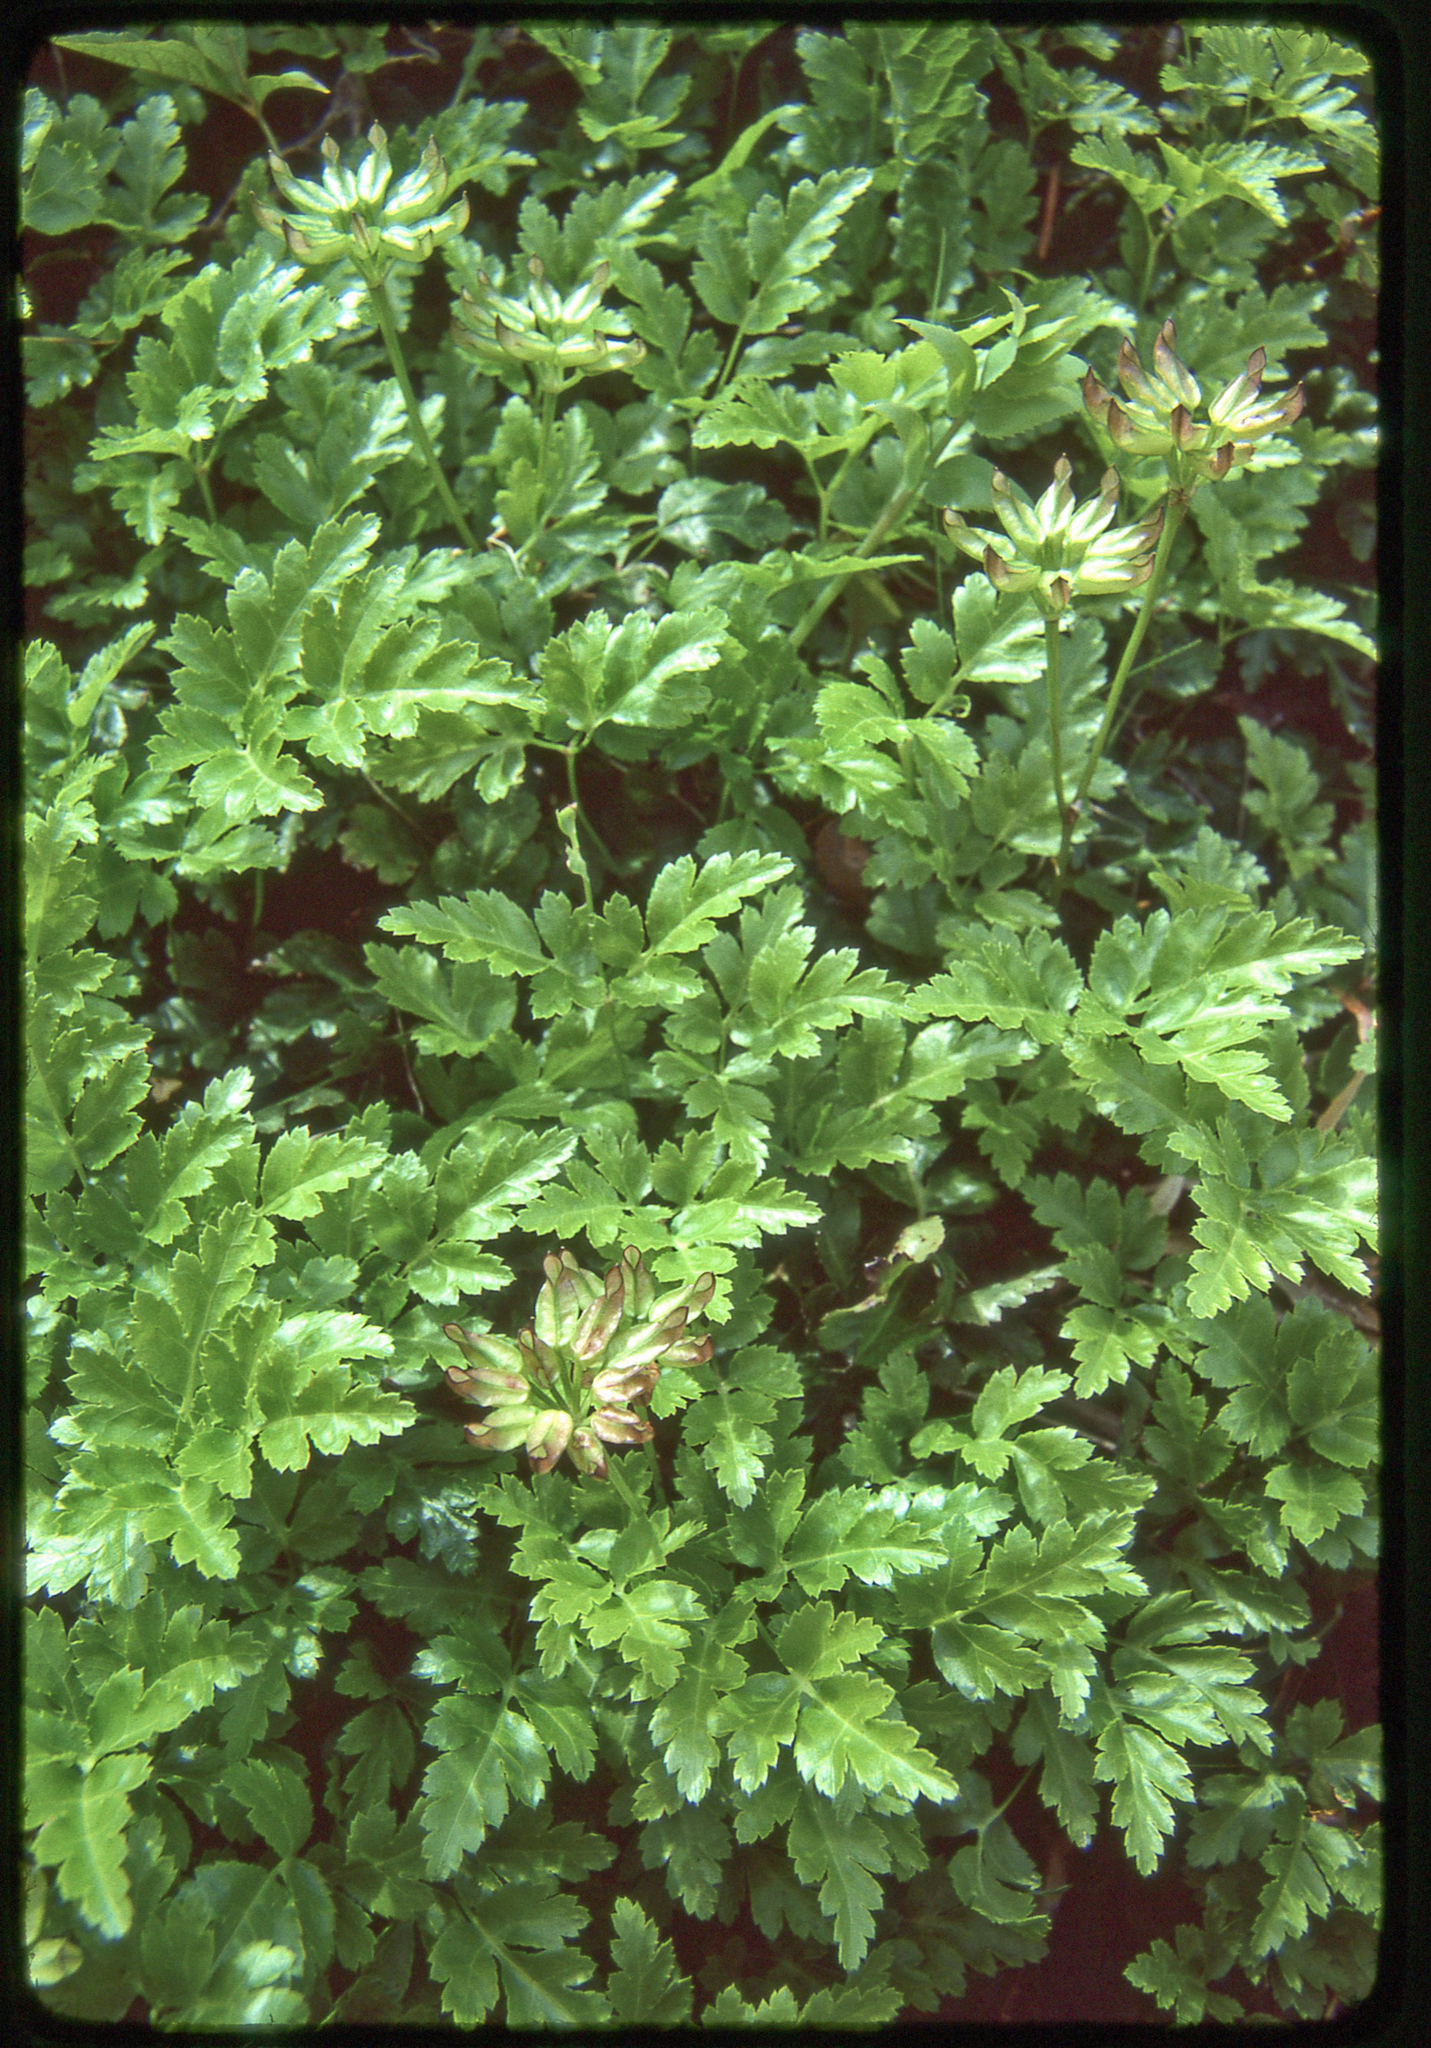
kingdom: Plantae
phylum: Tracheophyta
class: Magnoliopsida
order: Ranunculales
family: Ranunculaceae
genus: Coptis
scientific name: Coptis laciniata
